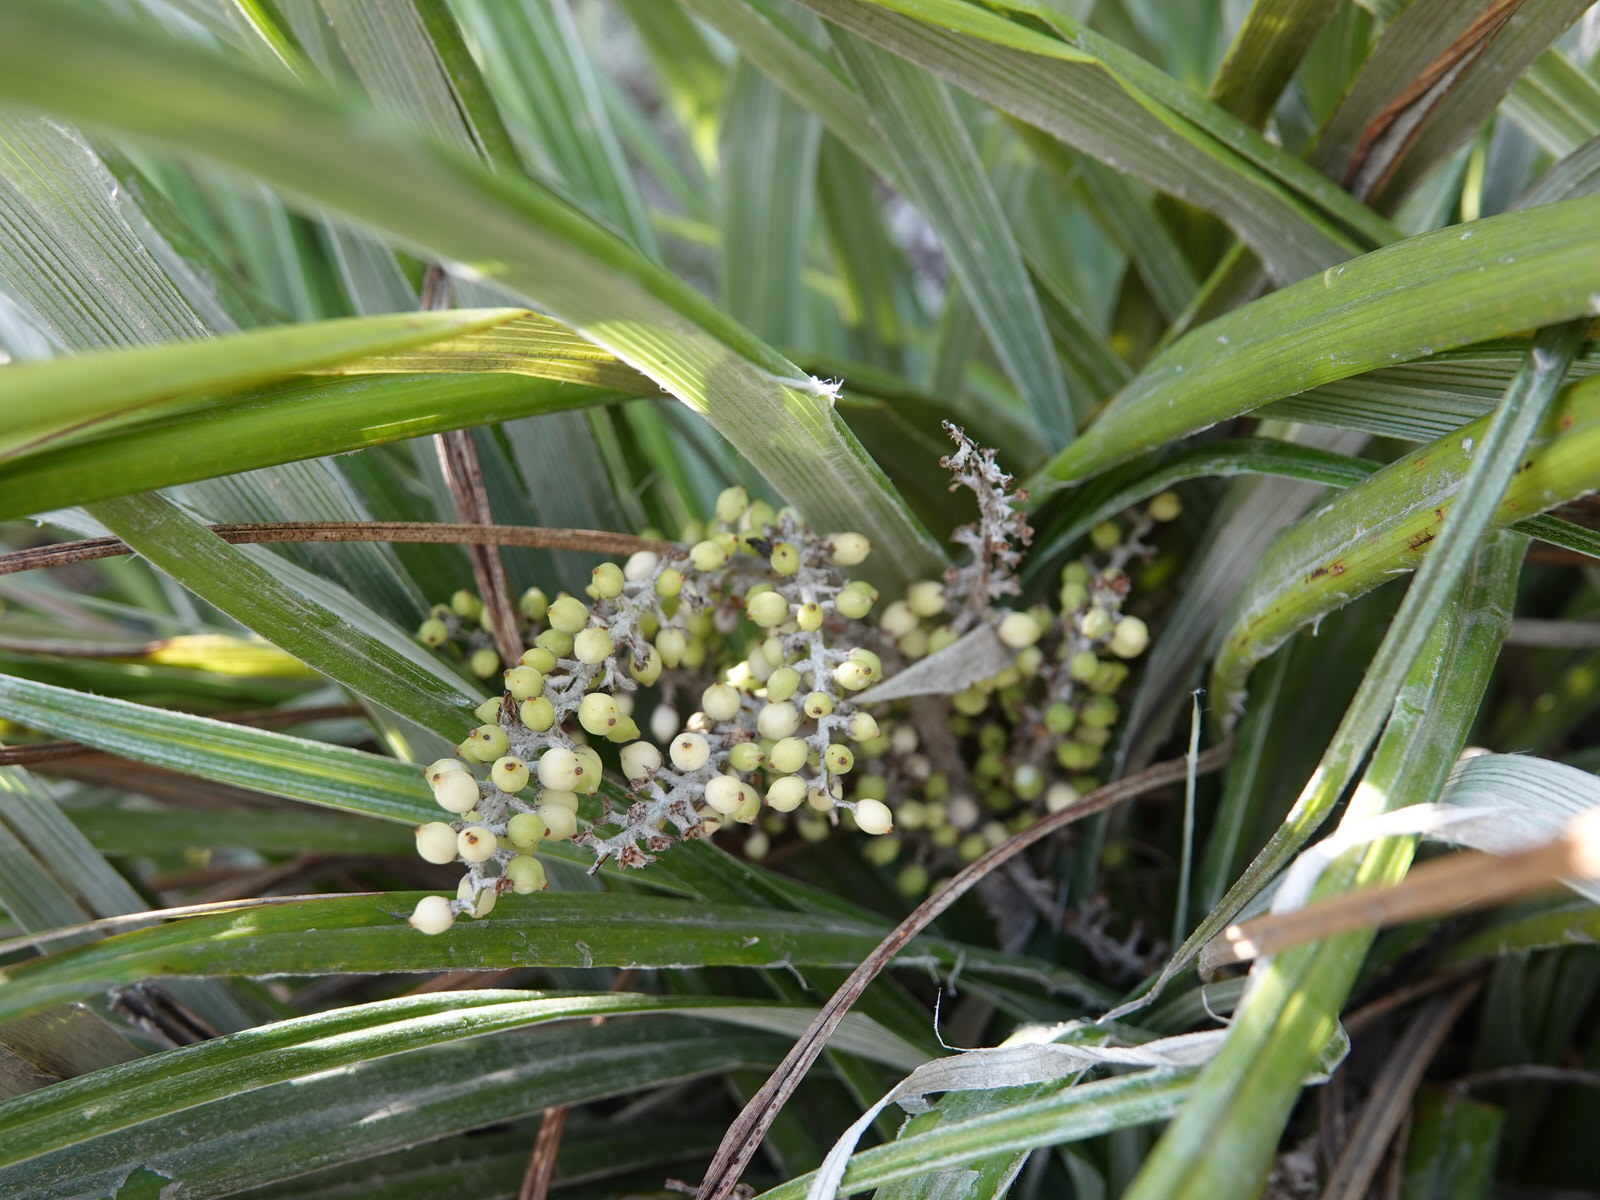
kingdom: Plantae
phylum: Tracheophyta
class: Liliopsida
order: Asparagales
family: Asteliaceae
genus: Astelia
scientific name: Astelia banksii
